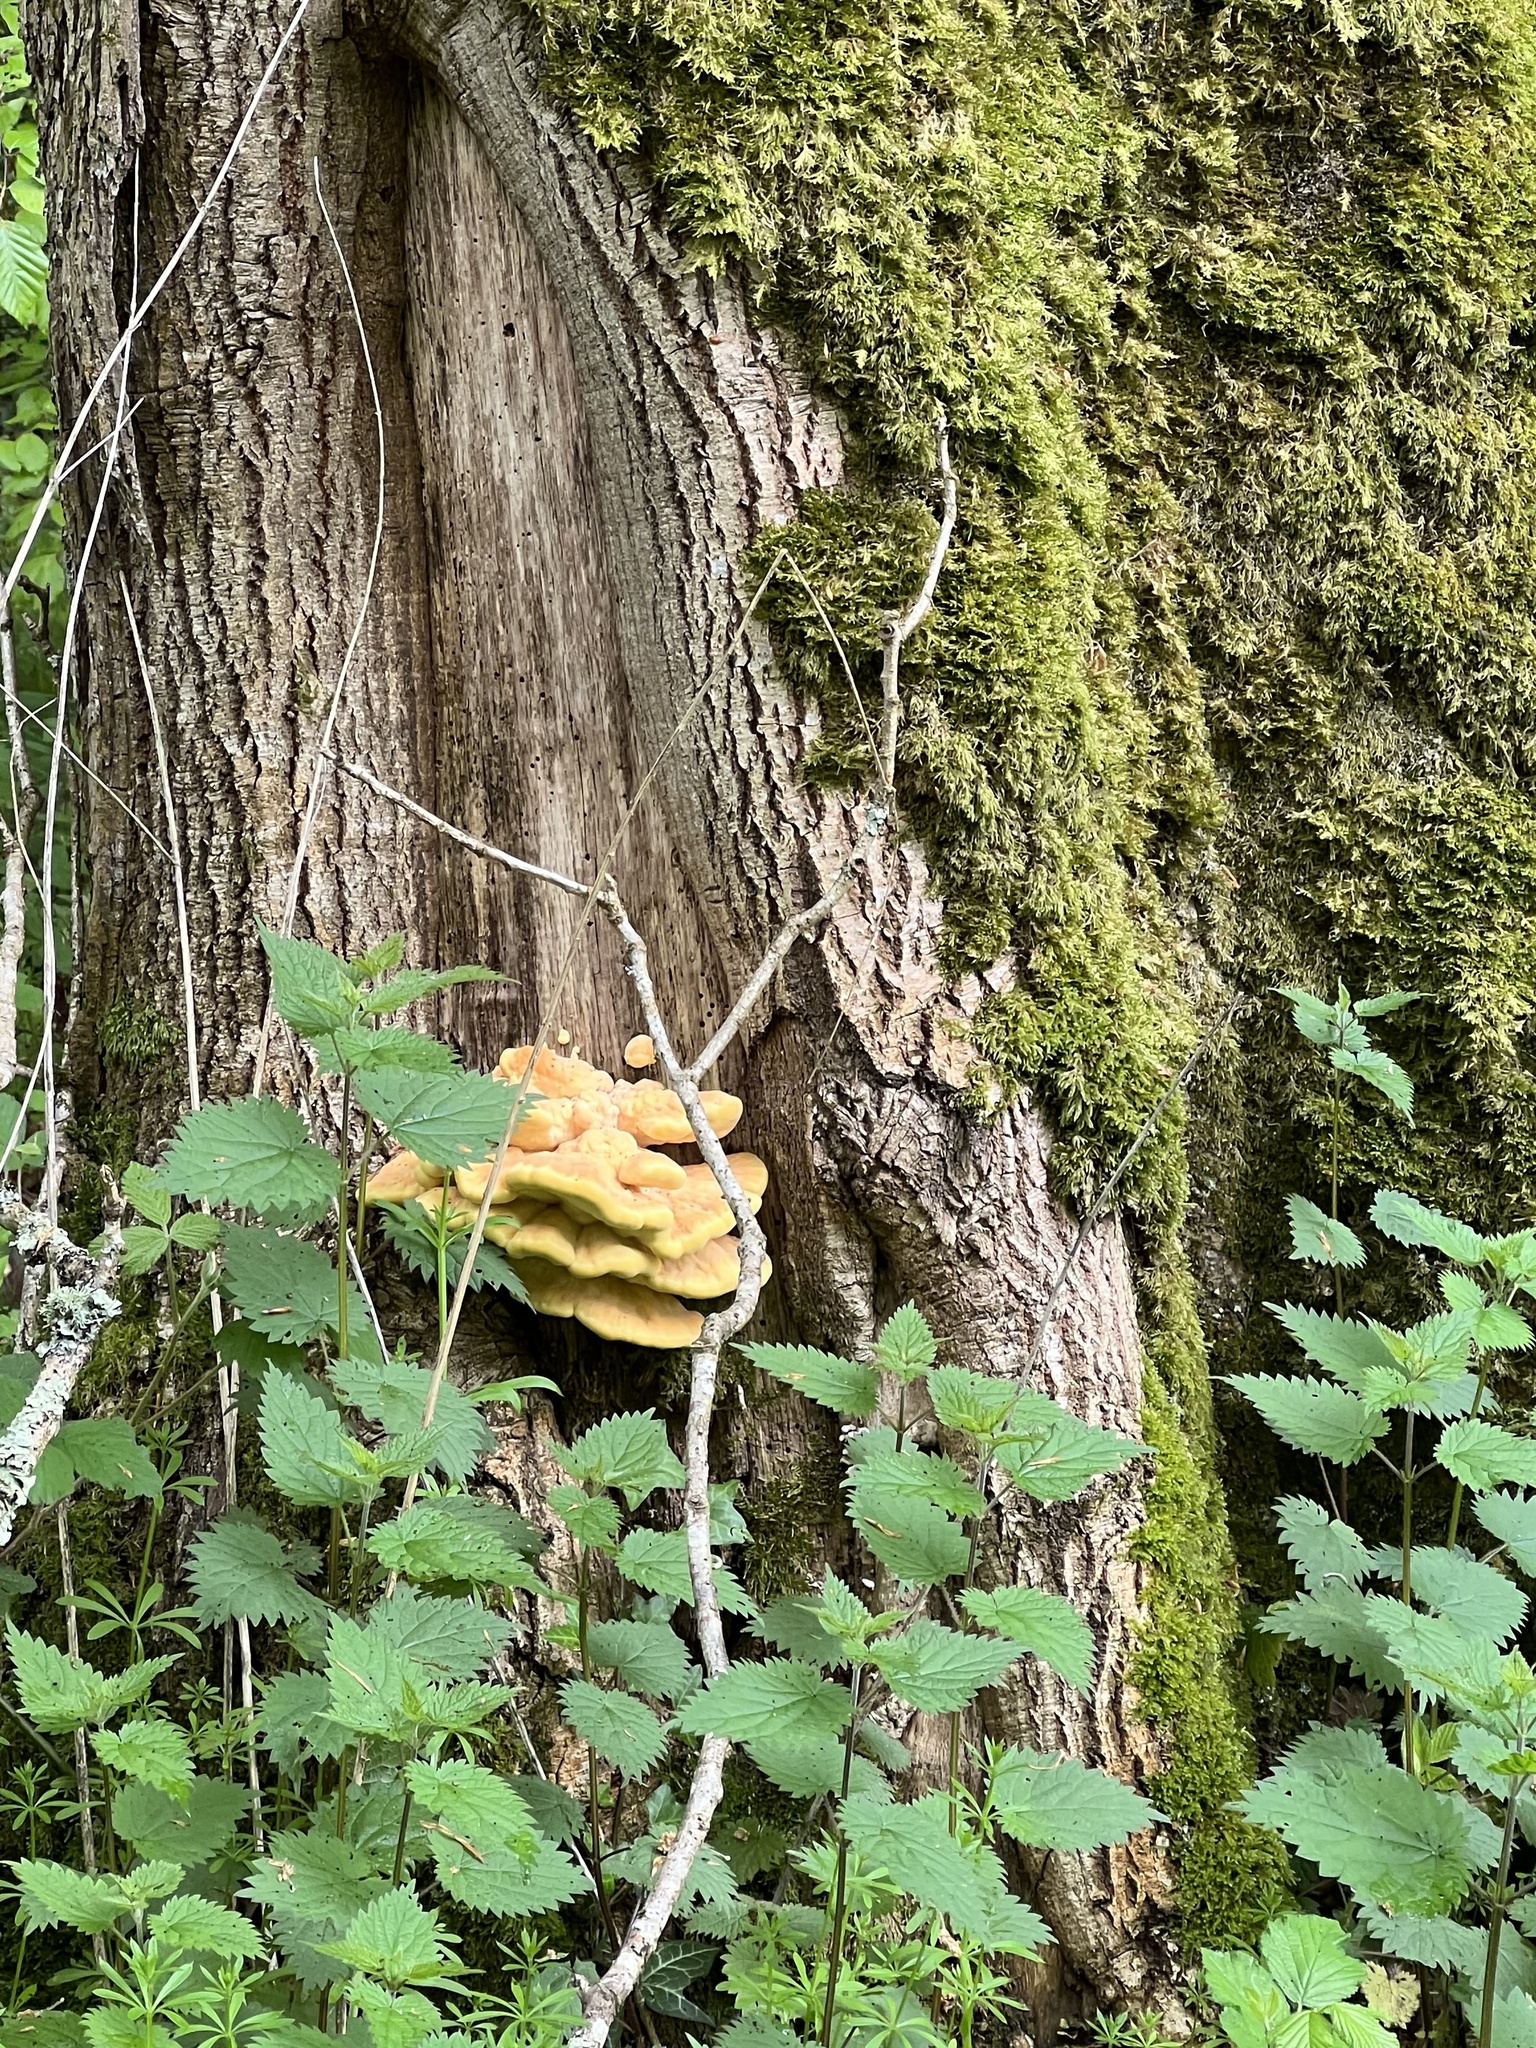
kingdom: Fungi
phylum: Basidiomycota
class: Agaricomycetes
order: Polyporales
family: Laetiporaceae
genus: Laetiporus
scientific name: Laetiporus sulphureus
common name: Chicken of the woods
